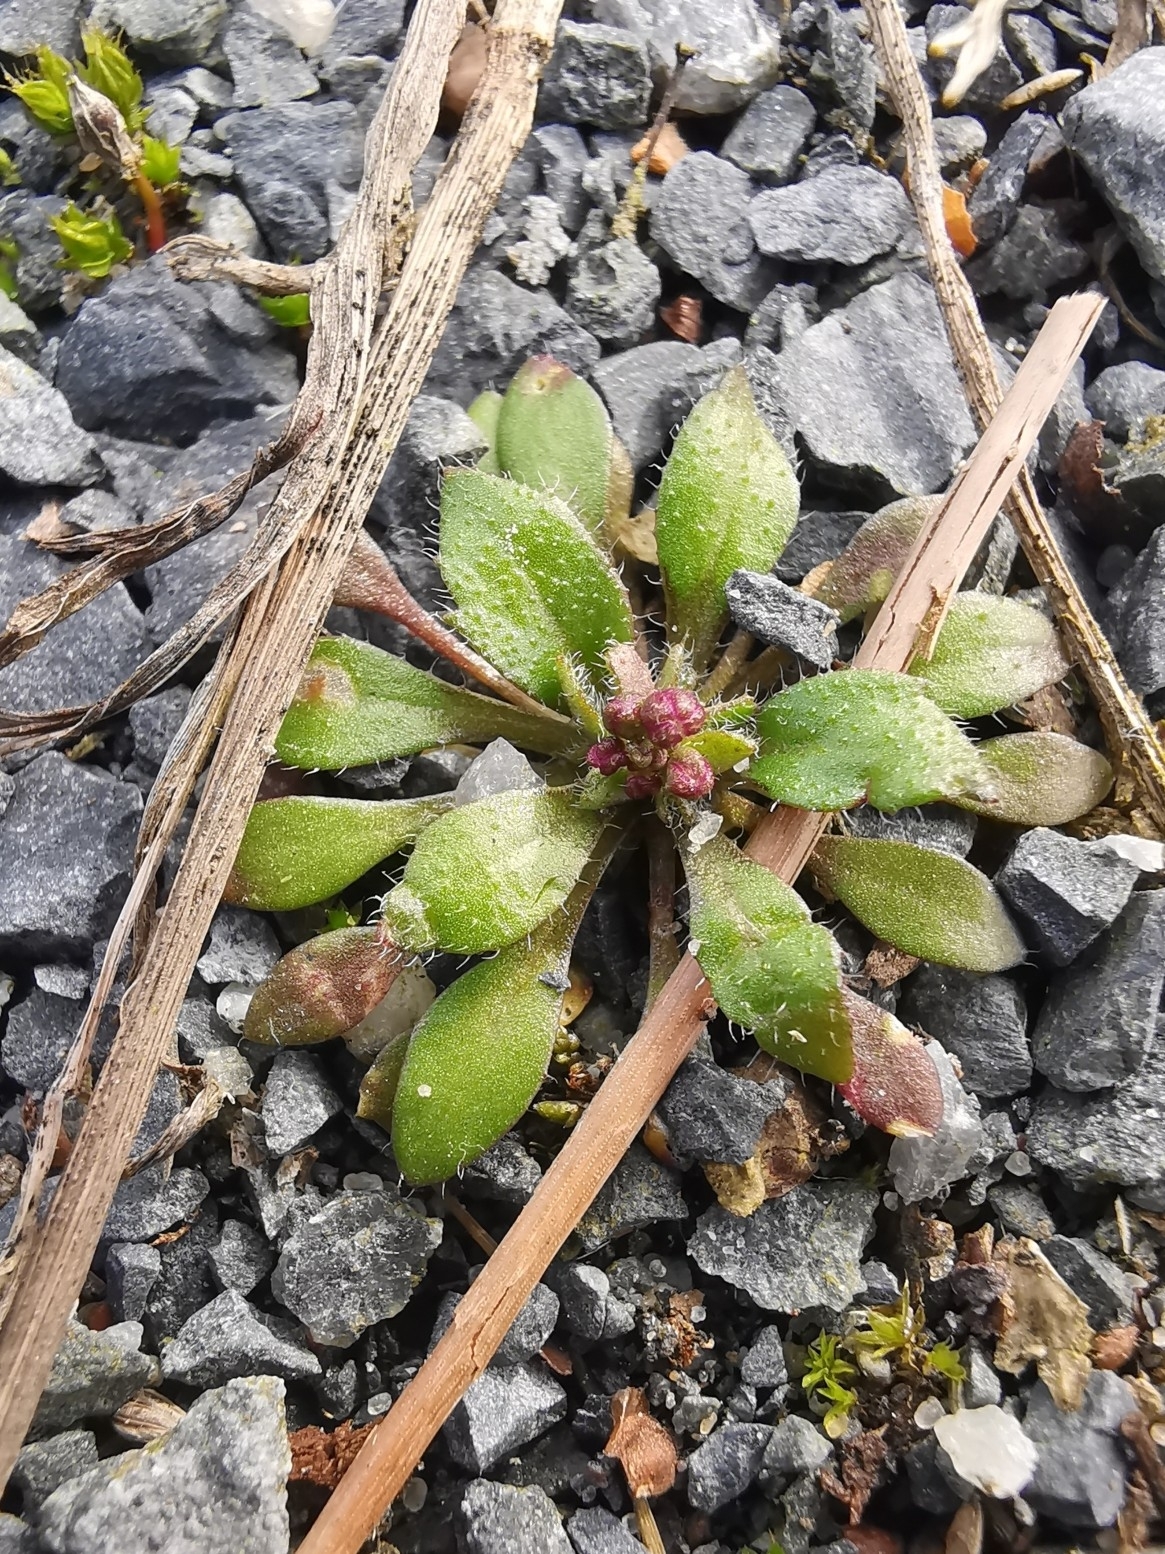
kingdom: Plantae
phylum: Tracheophyta
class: Magnoliopsida
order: Brassicales
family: Brassicaceae
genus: Draba
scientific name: Draba verna
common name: Spring draba
